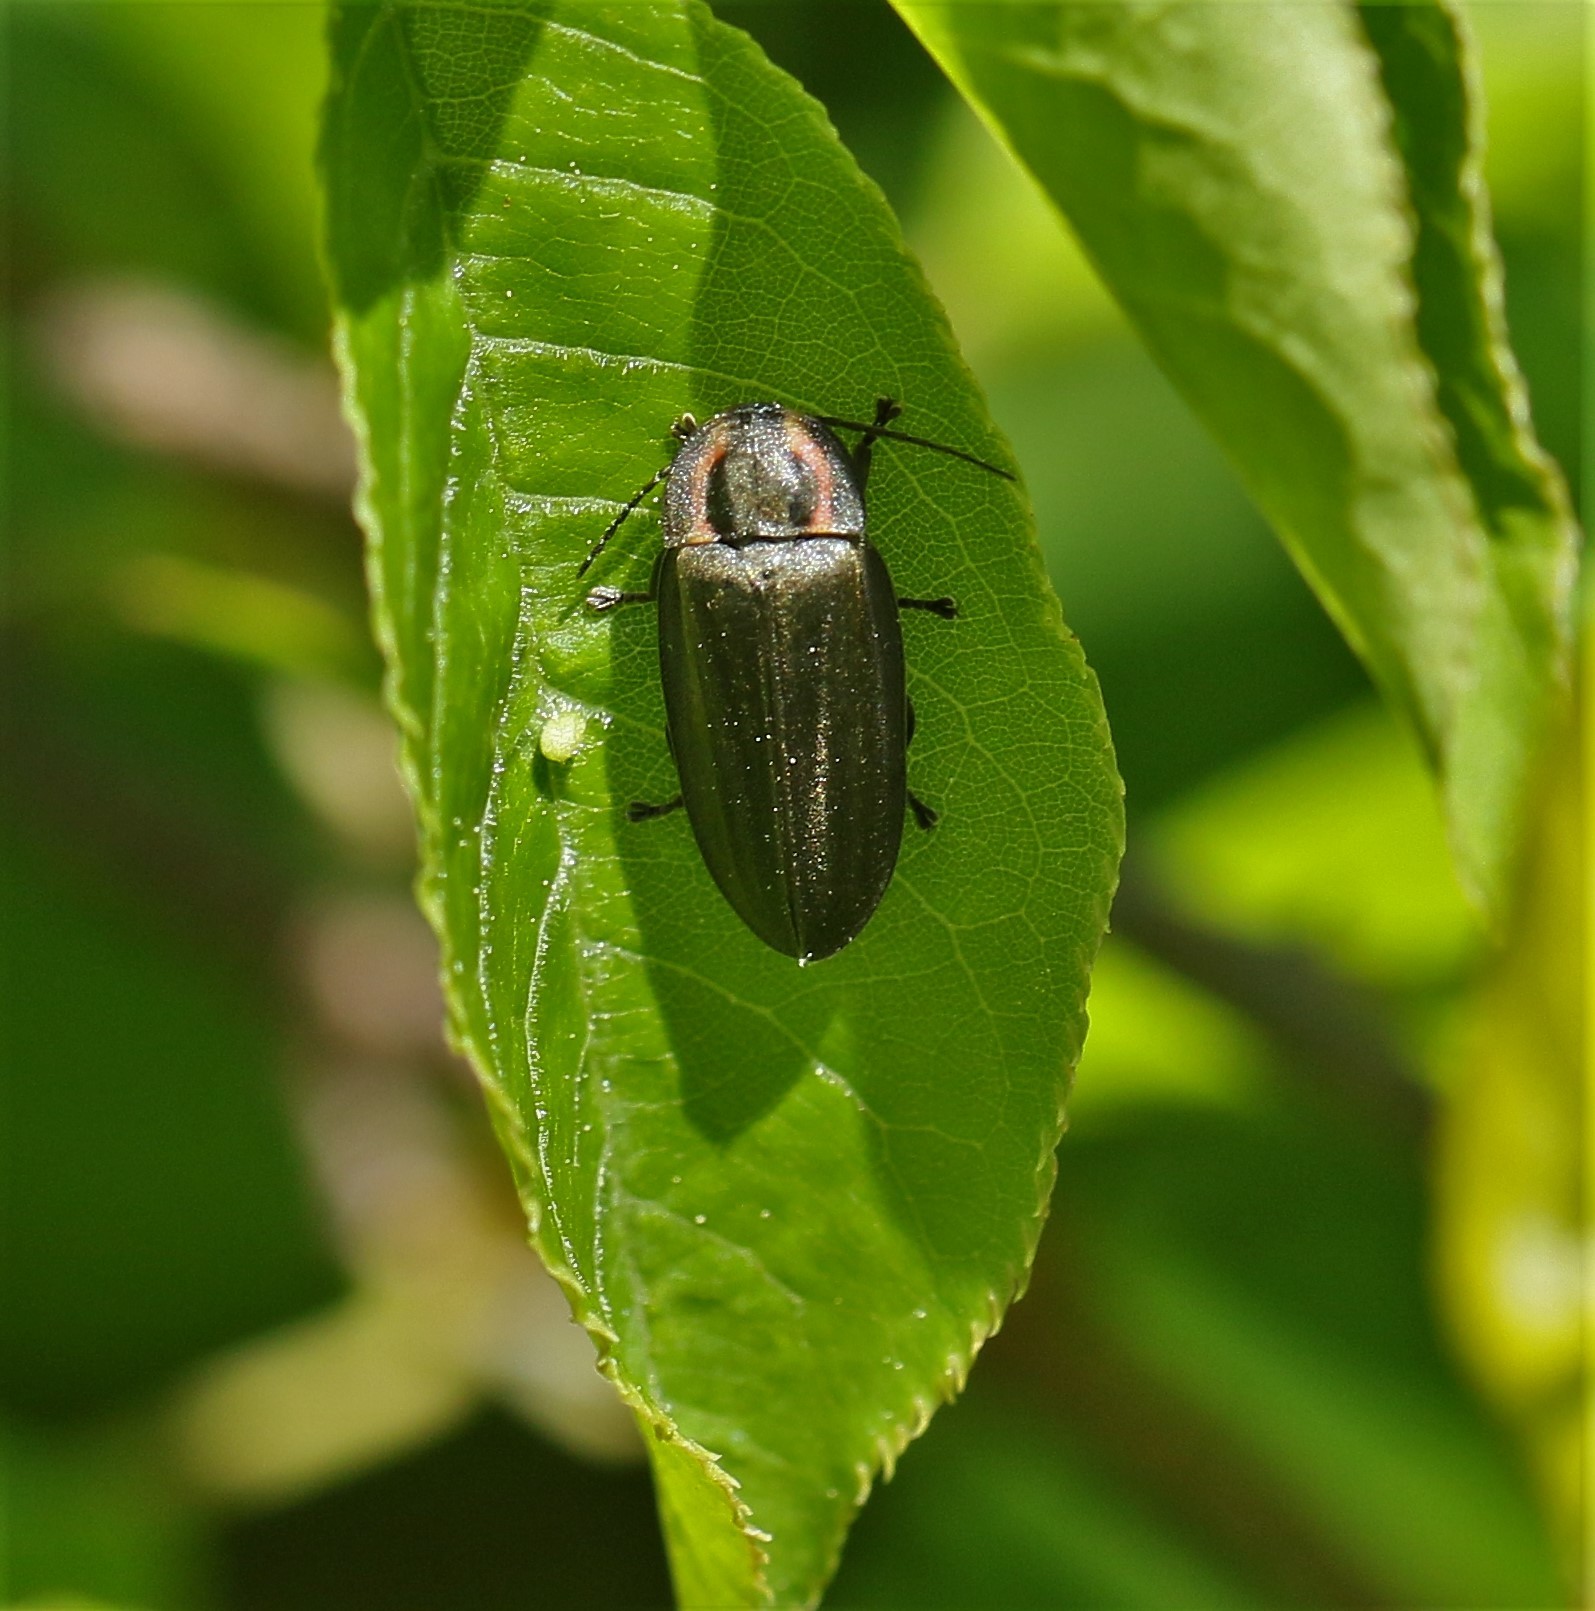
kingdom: Animalia
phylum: Arthropoda
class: Insecta
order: Coleoptera
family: Lampyridae
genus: Photinus
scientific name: Photinus corrusca
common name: Winter firefly
